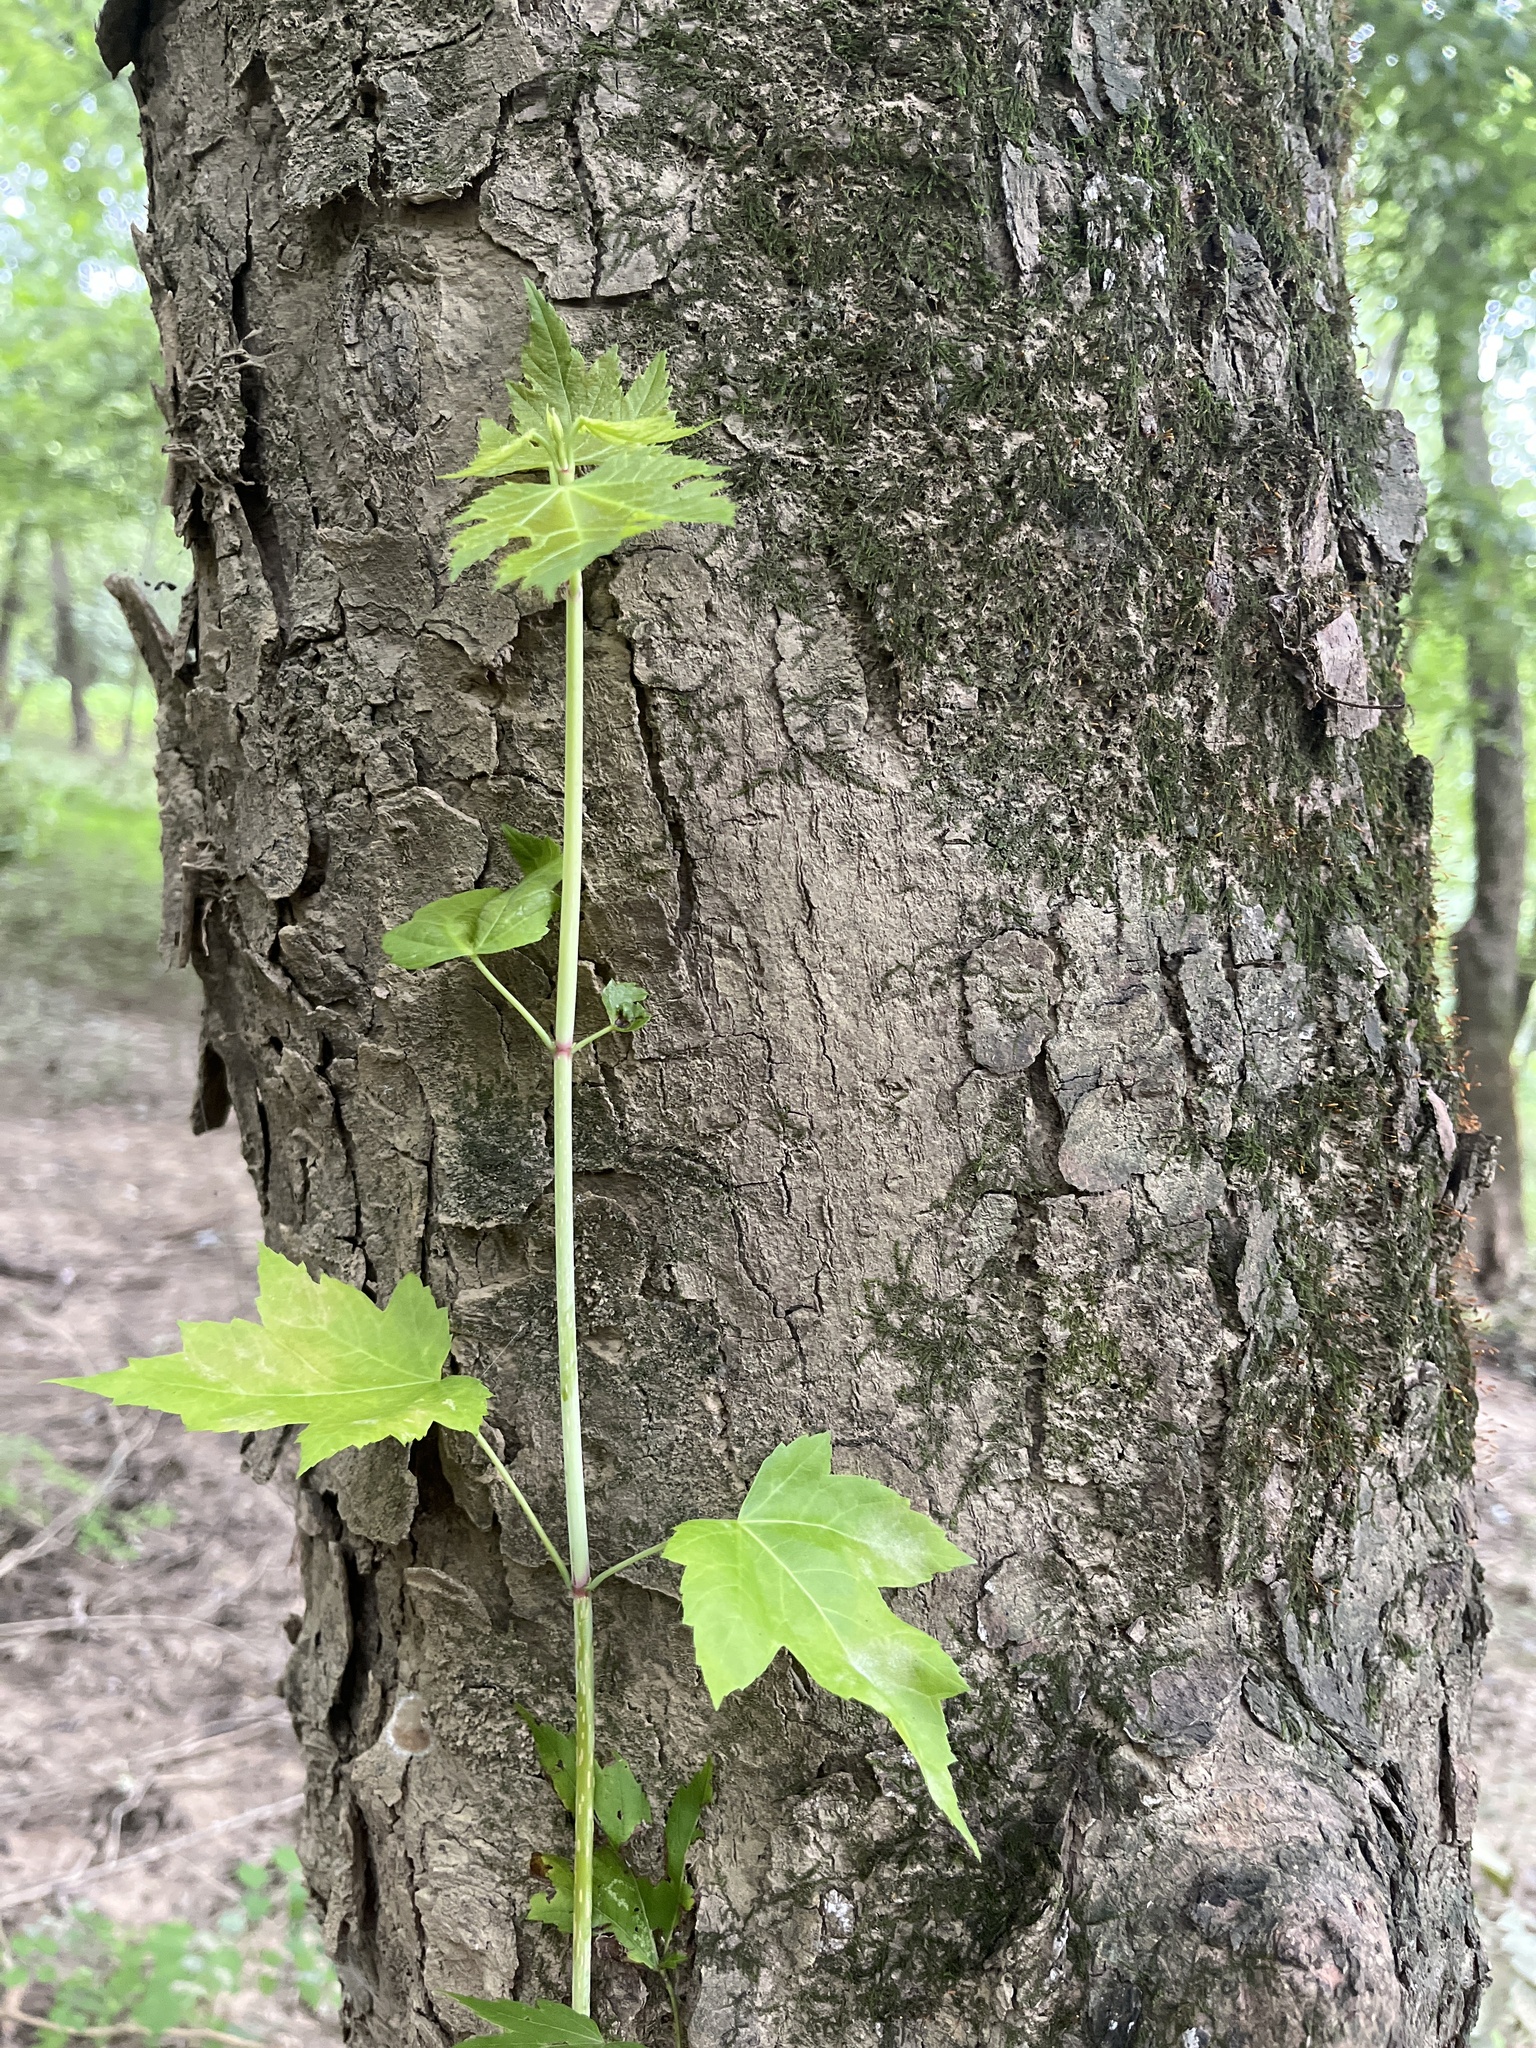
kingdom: Plantae
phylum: Tracheophyta
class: Magnoliopsida
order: Sapindales
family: Sapindaceae
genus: Acer
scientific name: Acer rubrum
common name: Red maple
